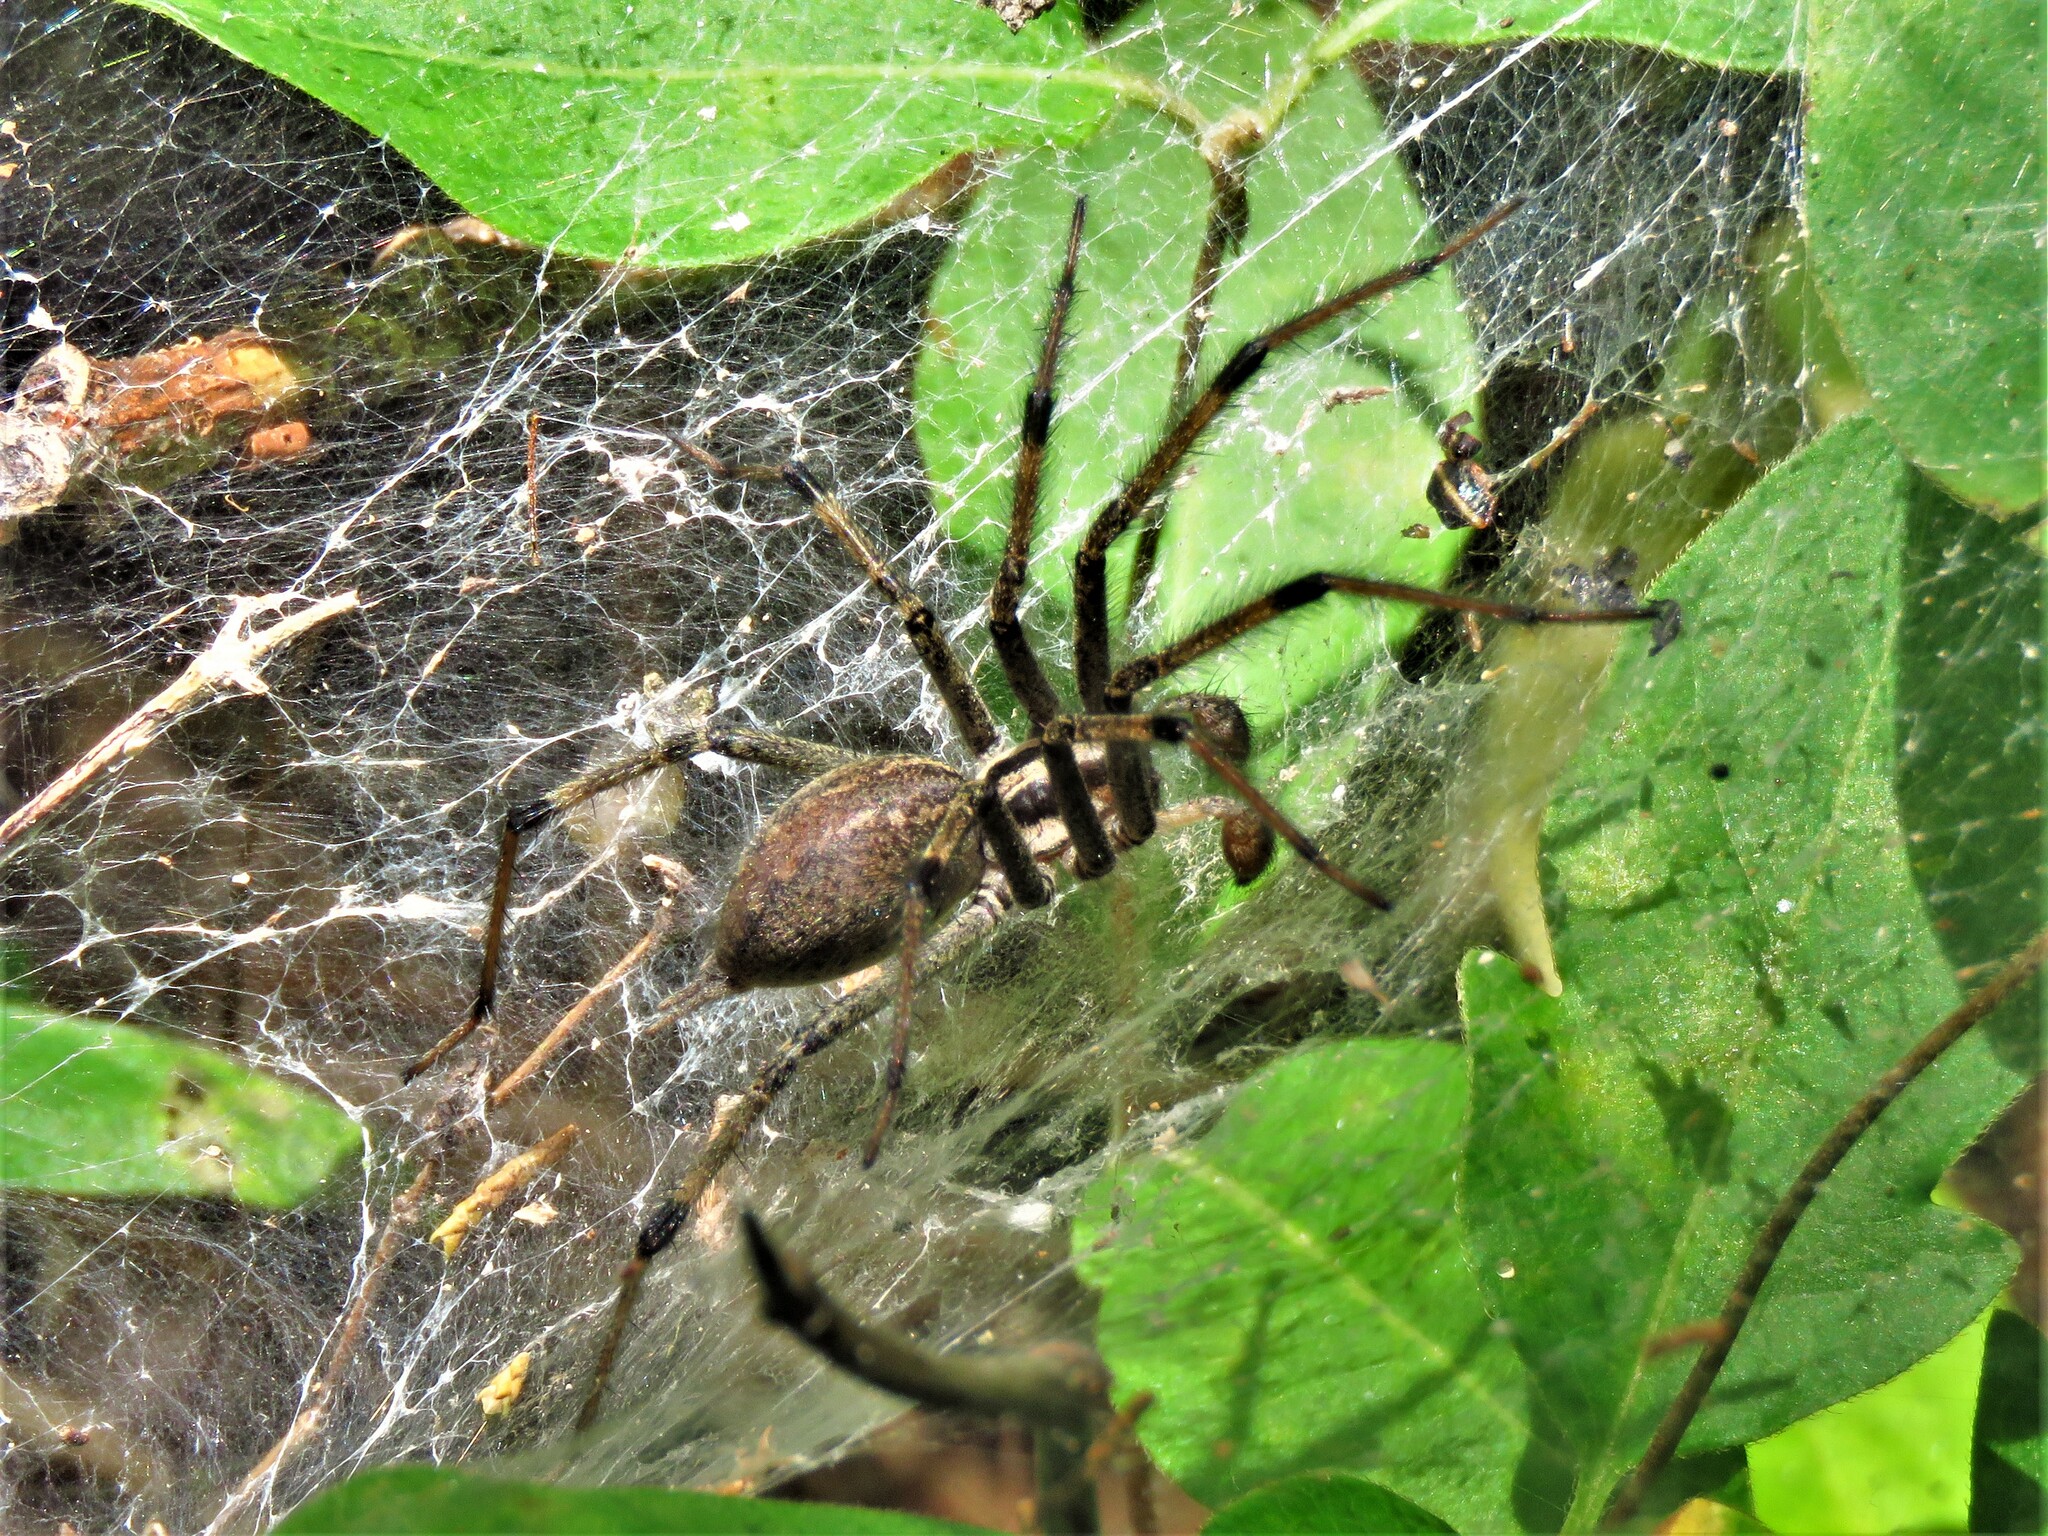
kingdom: Animalia
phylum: Arthropoda
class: Arachnida
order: Araneae
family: Agelenidae
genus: Agelenopsis
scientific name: Agelenopsis
